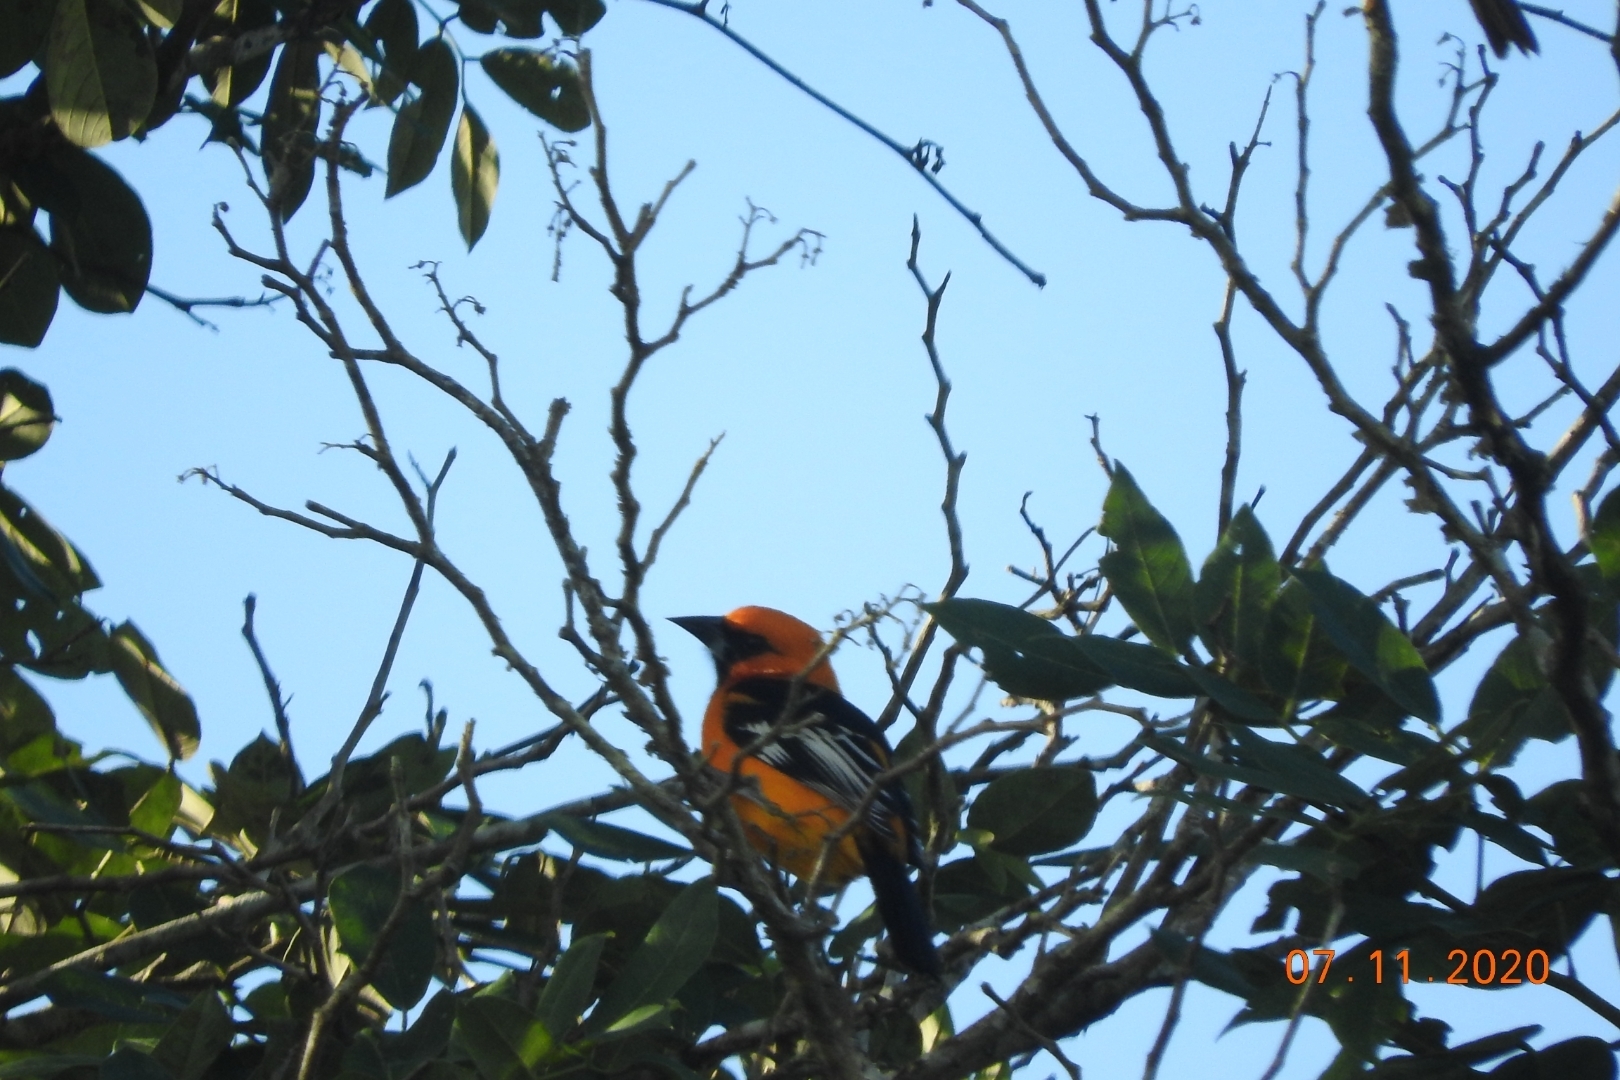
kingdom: Animalia
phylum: Chordata
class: Aves
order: Passeriformes
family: Icteridae
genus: Icterus
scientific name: Icterus gularis
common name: Altamira oriole
